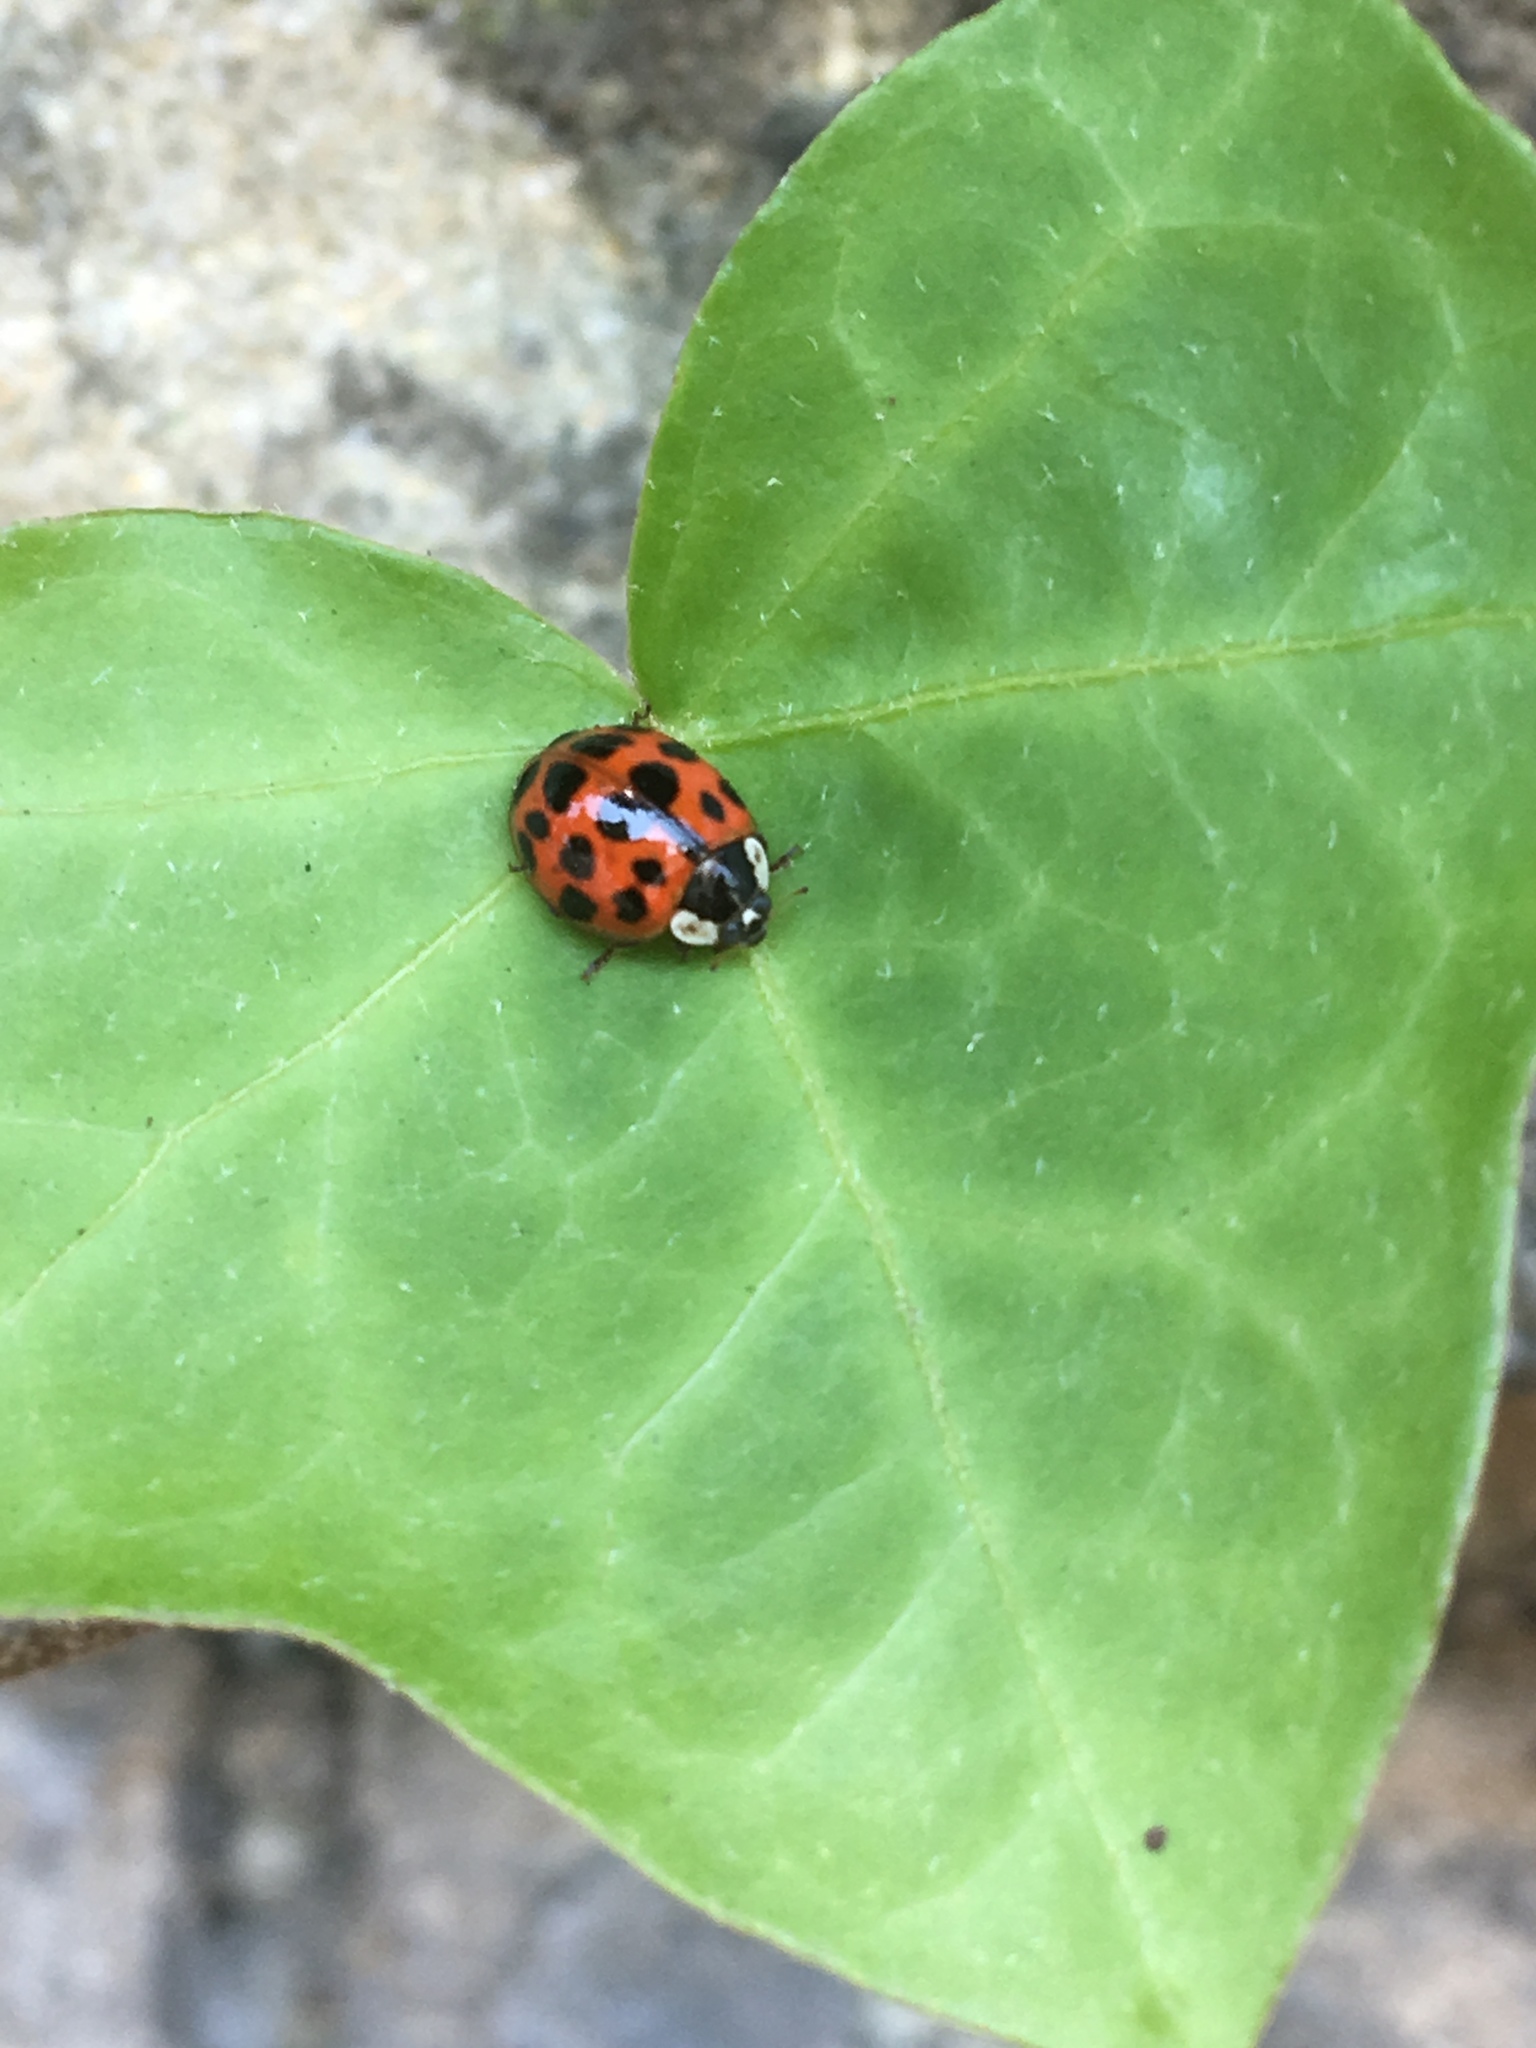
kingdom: Animalia
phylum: Arthropoda
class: Insecta
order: Coleoptera
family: Coccinellidae
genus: Harmonia
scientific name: Harmonia axyridis
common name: Harlequin ladybird
